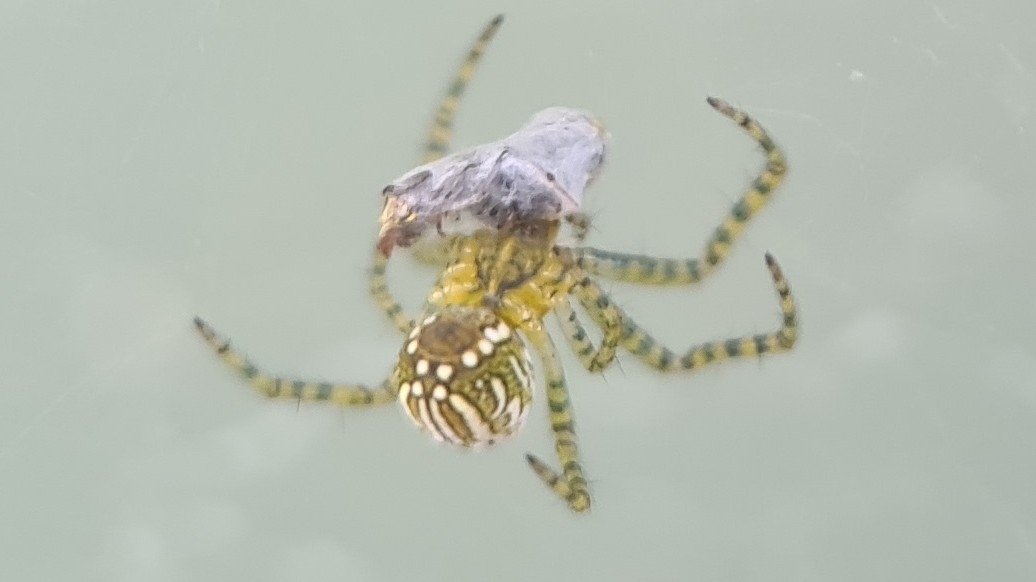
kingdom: Chromista
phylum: Ochrophyta
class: Dictyochophyceae
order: Pedinellales
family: Cyrtophoraceae
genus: Cyrtophora
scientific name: Cyrtophora moluccensis
